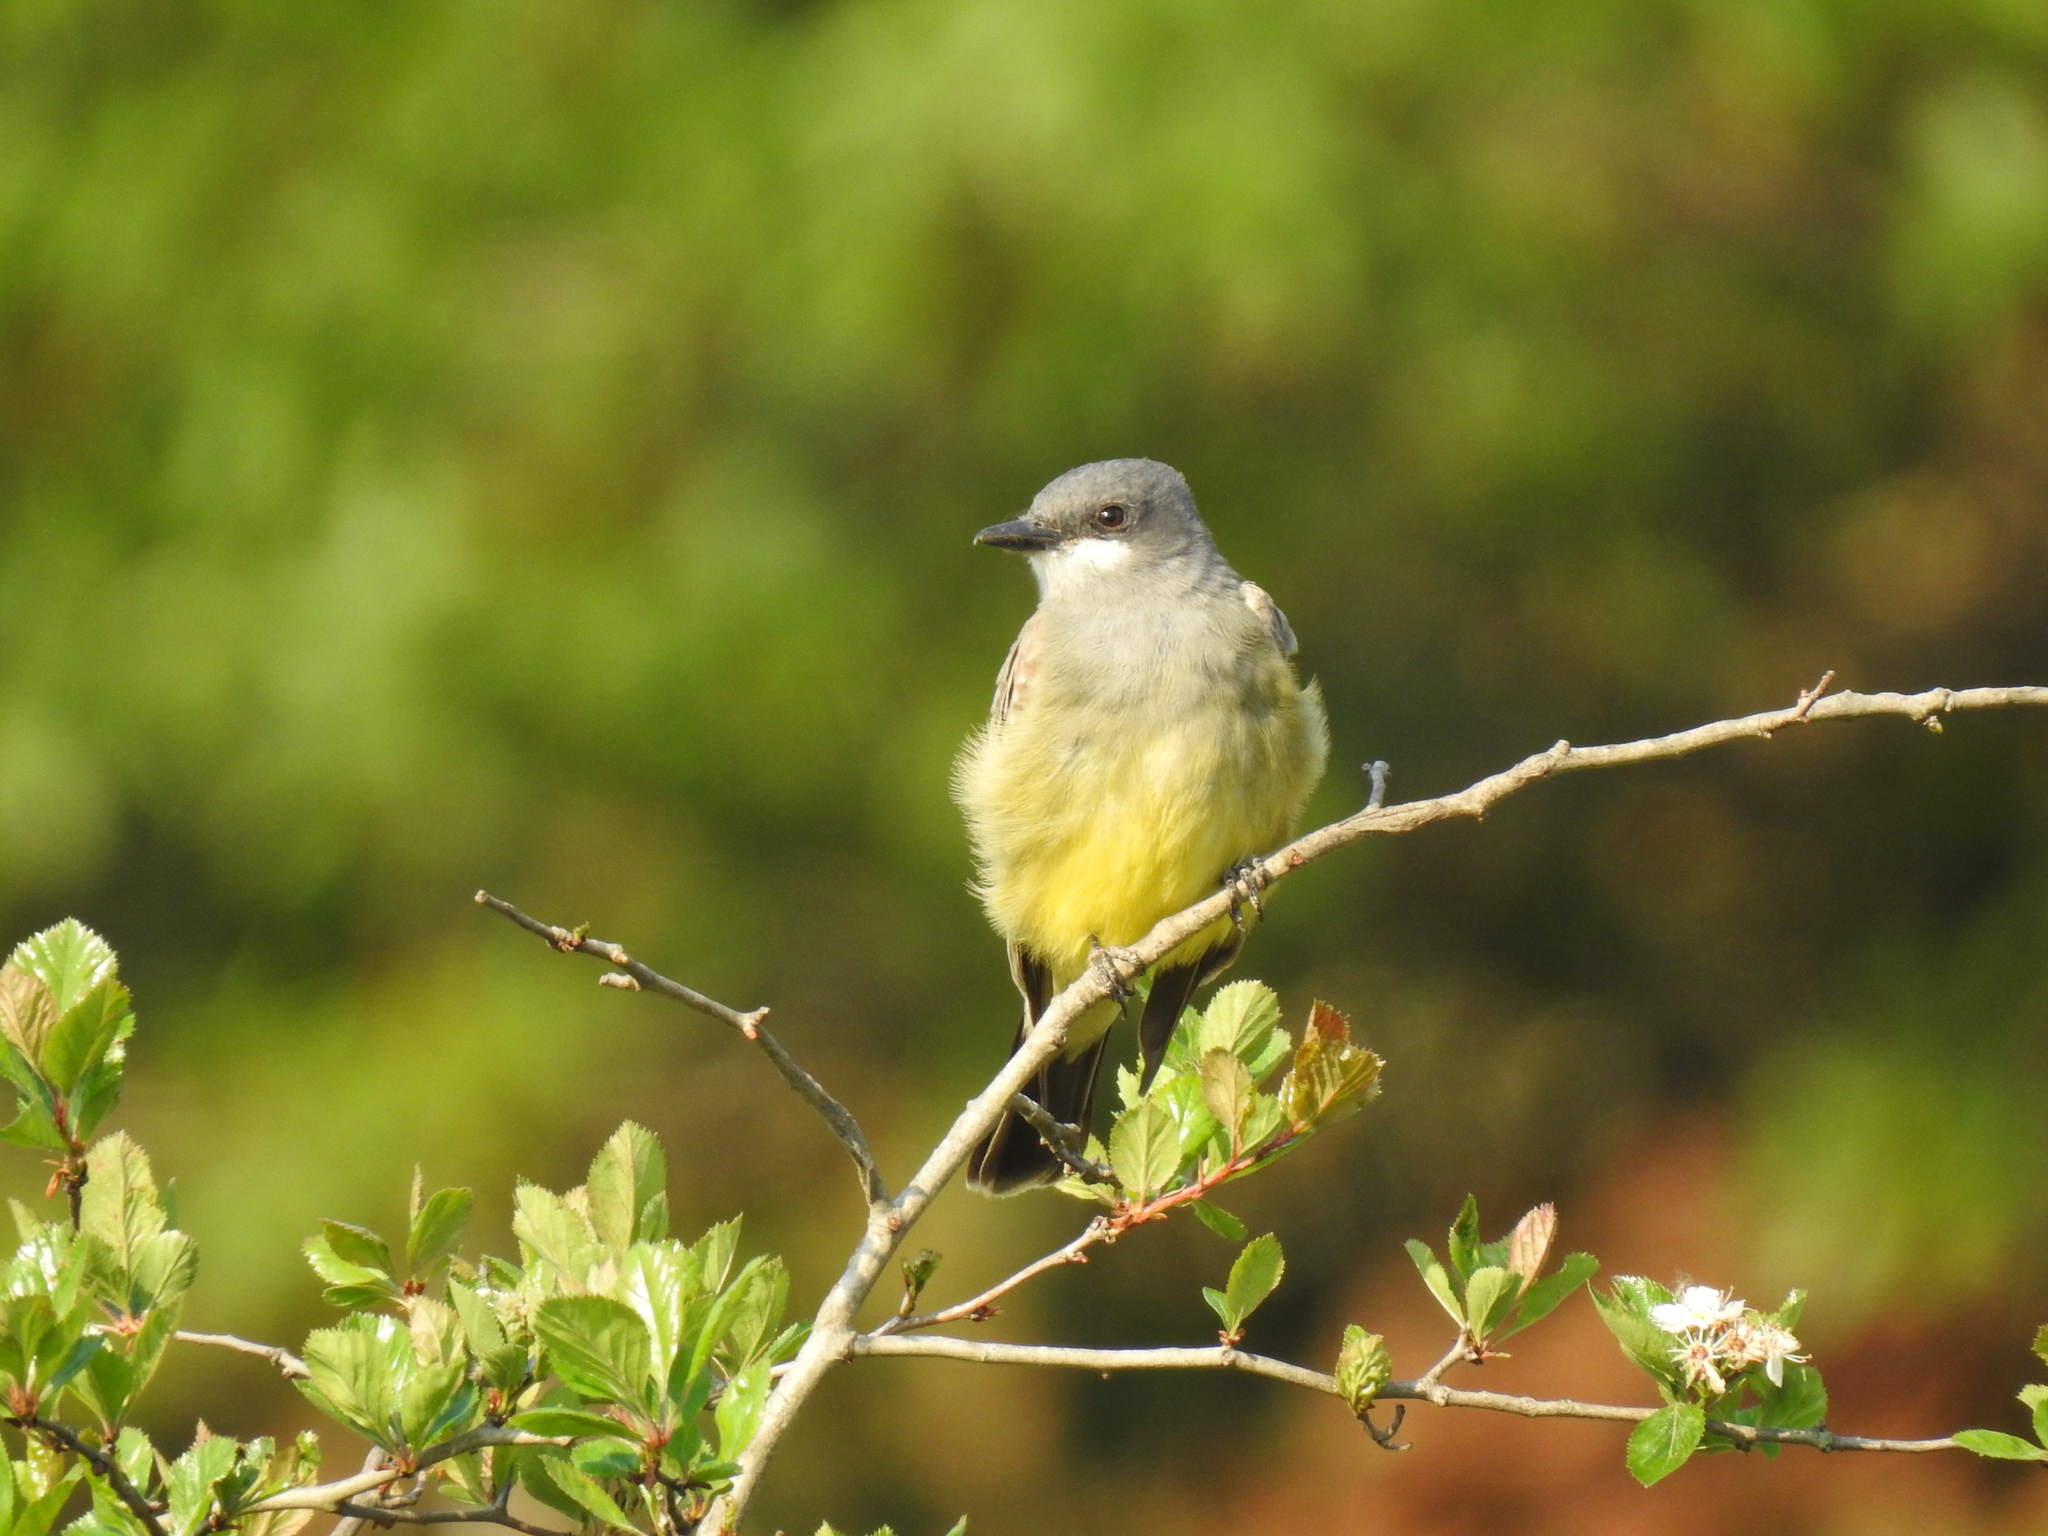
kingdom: Animalia
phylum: Chordata
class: Aves
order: Passeriformes
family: Tyrannidae
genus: Tyrannus
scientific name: Tyrannus vociferans
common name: Cassin's kingbird
